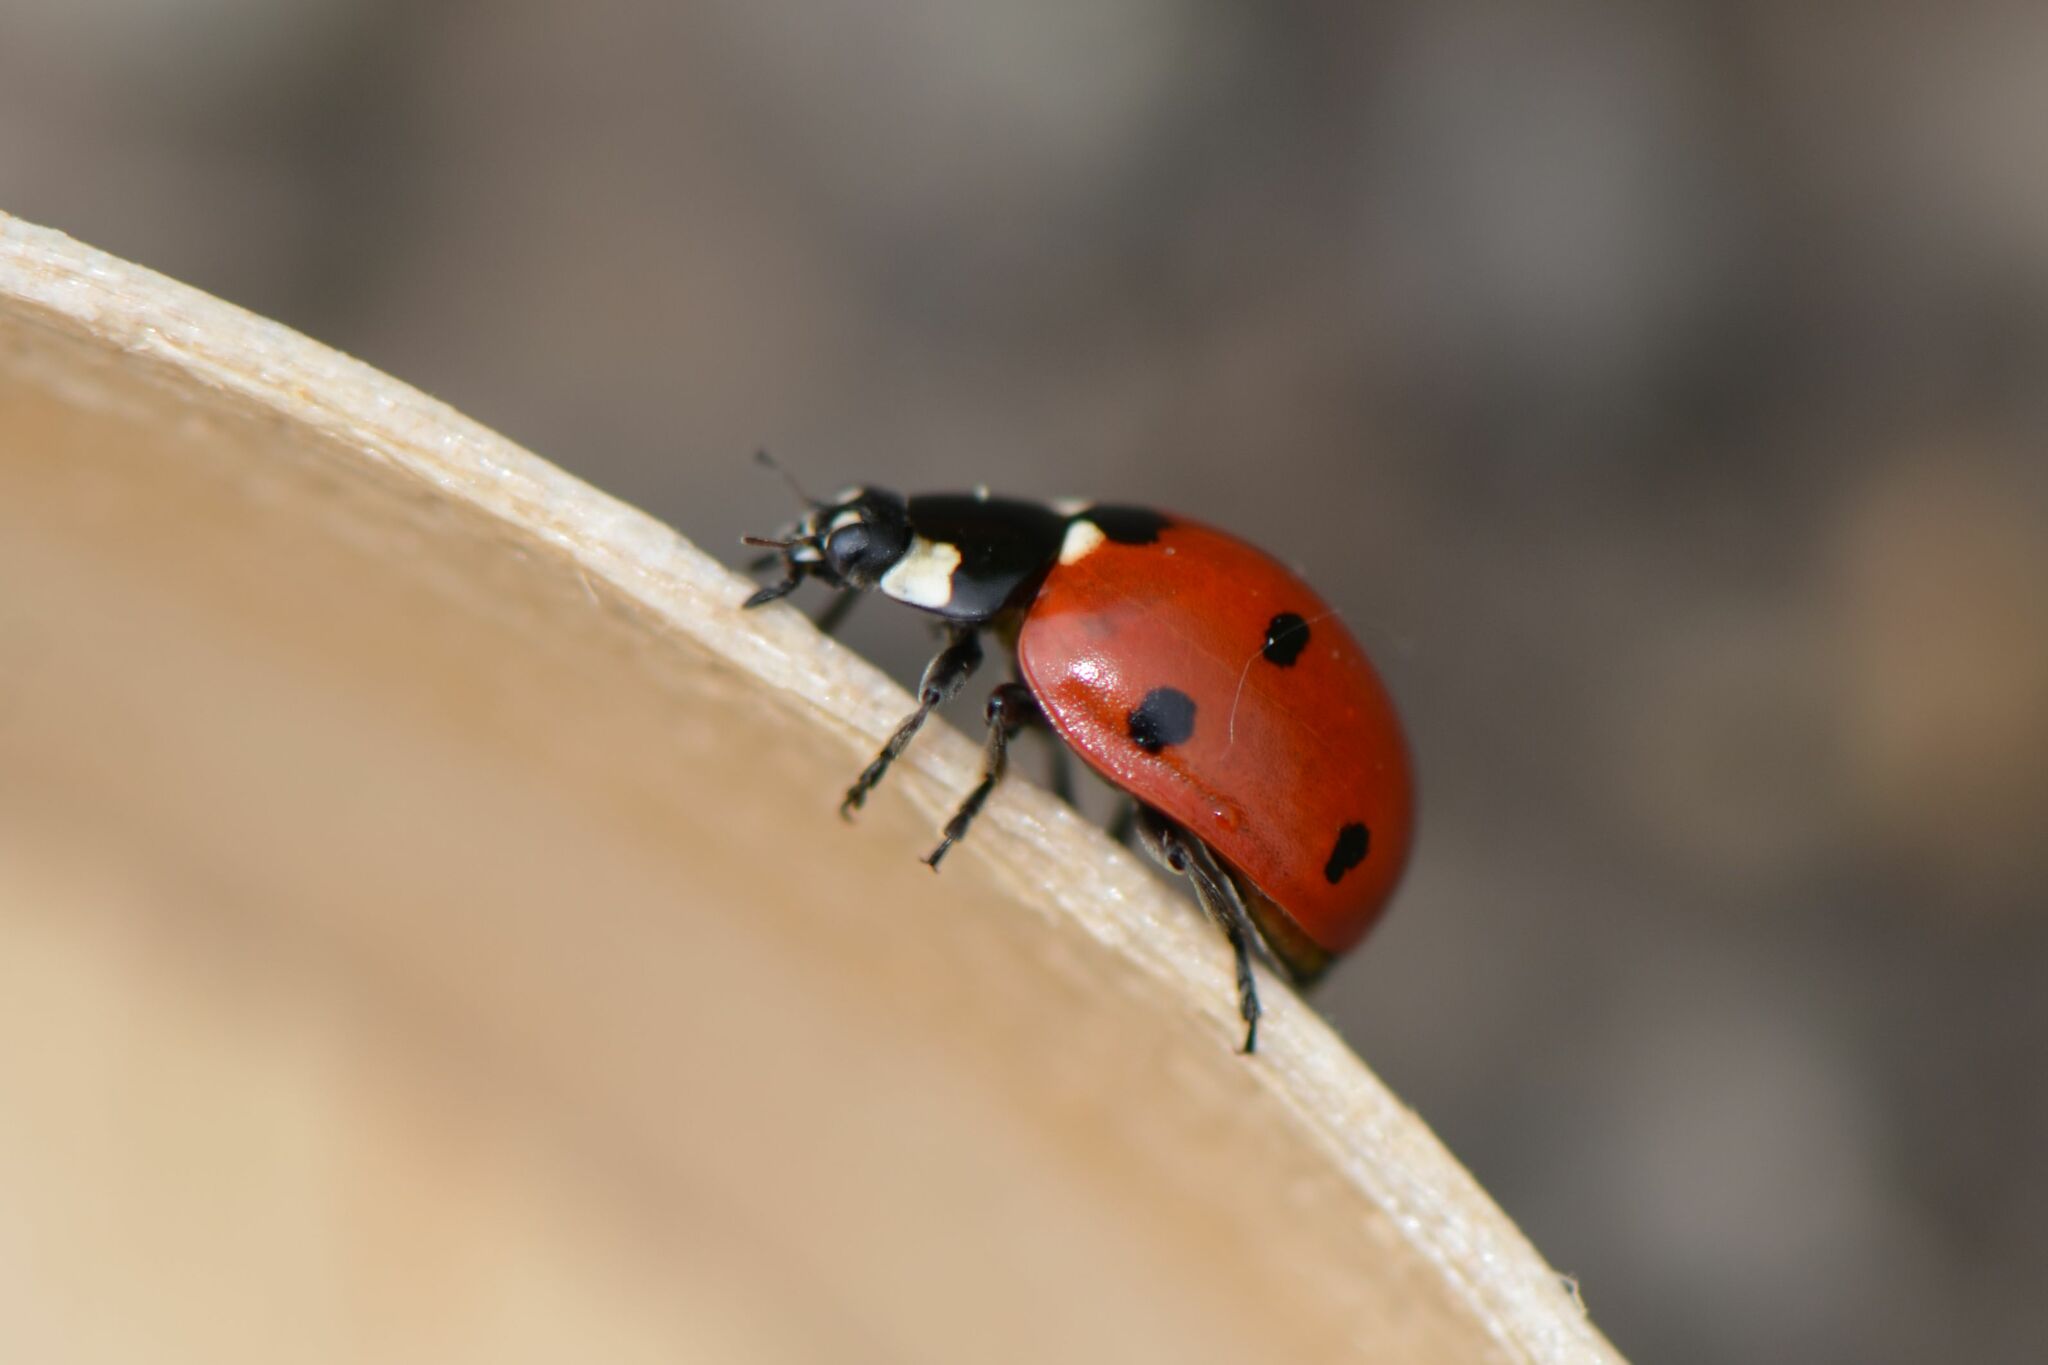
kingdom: Animalia
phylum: Arthropoda
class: Insecta
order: Coleoptera
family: Coccinellidae
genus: Coccinella
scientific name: Coccinella septempunctata
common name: Sevenspotted lady beetle
